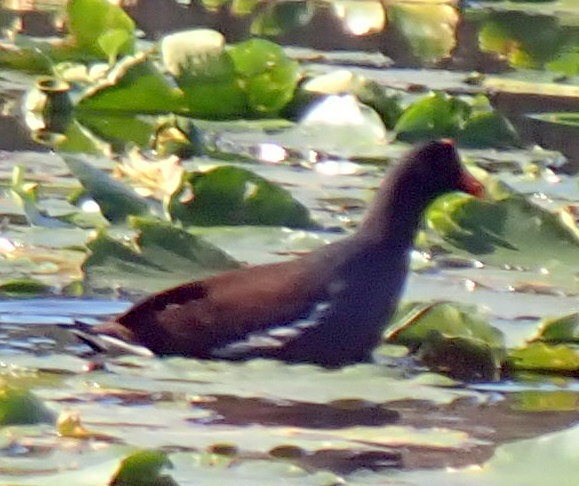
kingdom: Animalia
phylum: Chordata
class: Aves
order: Gruiformes
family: Rallidae
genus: Gallinula
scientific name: Gallinula chloropus
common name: Common moorhen
